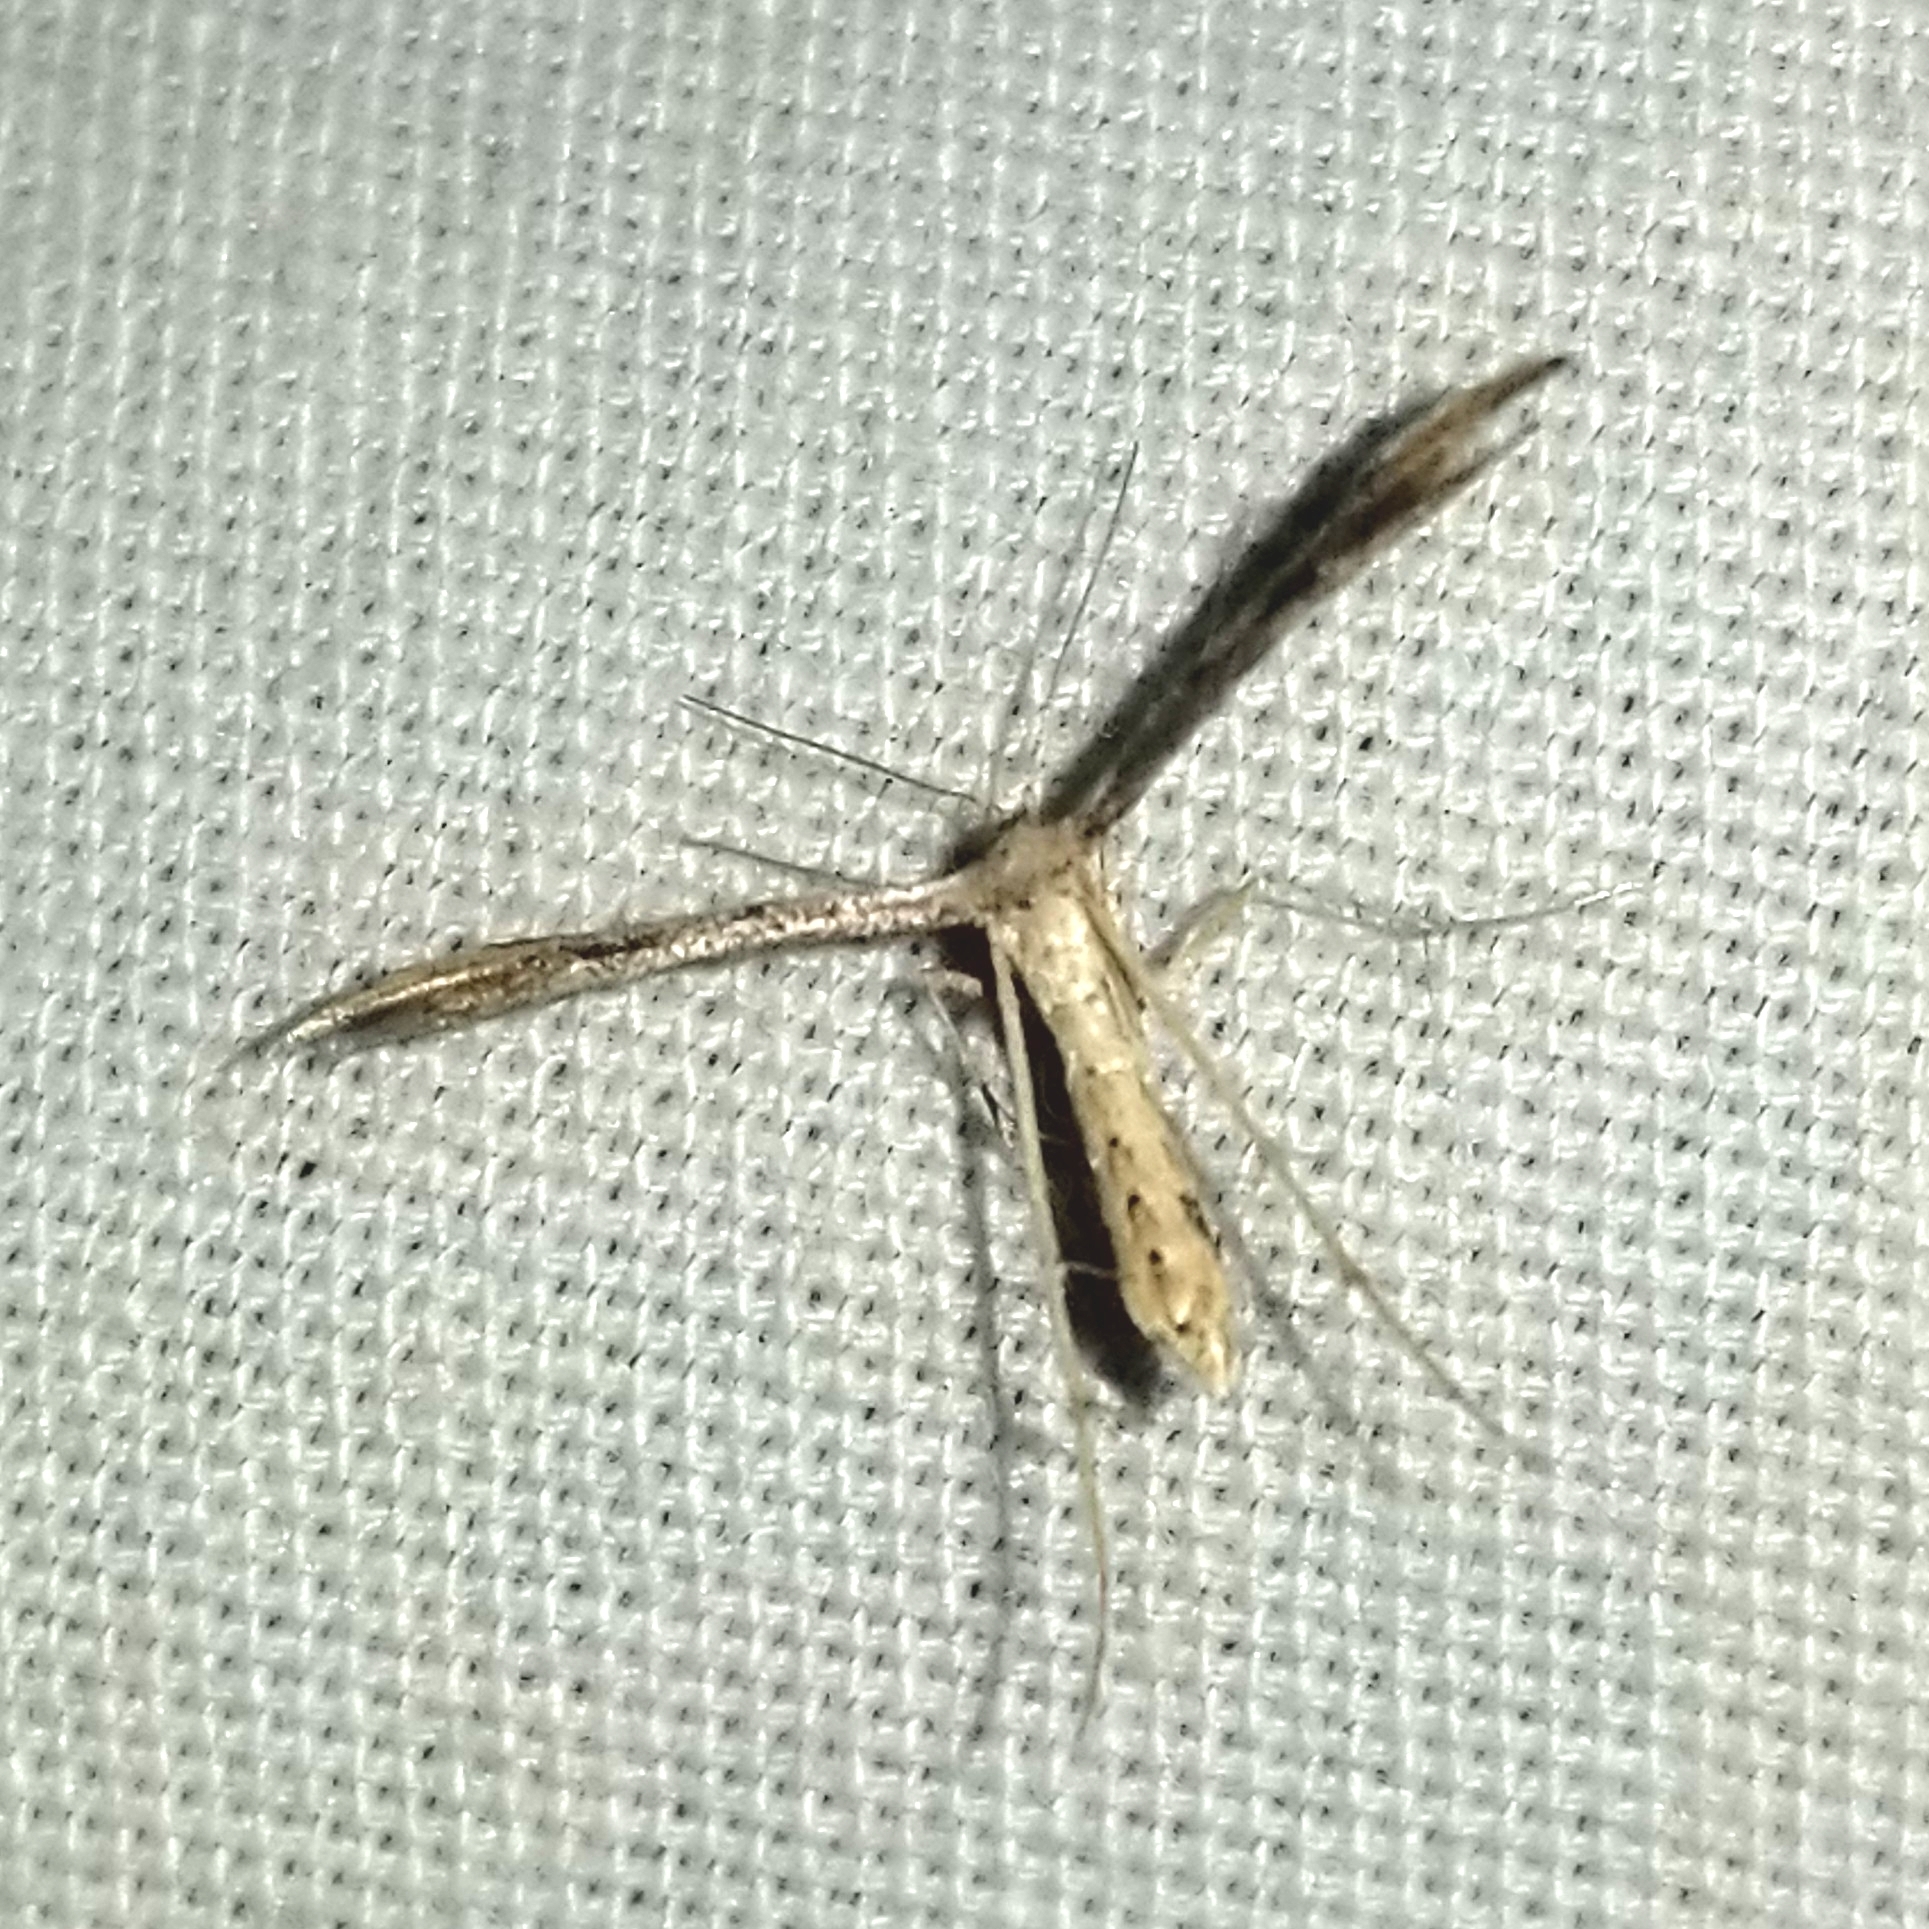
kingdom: Animalia
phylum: Arthropoda
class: Insecta
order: Lepidoptera
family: Pterophoridae
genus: Adaina
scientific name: Adaina ambrosiae
